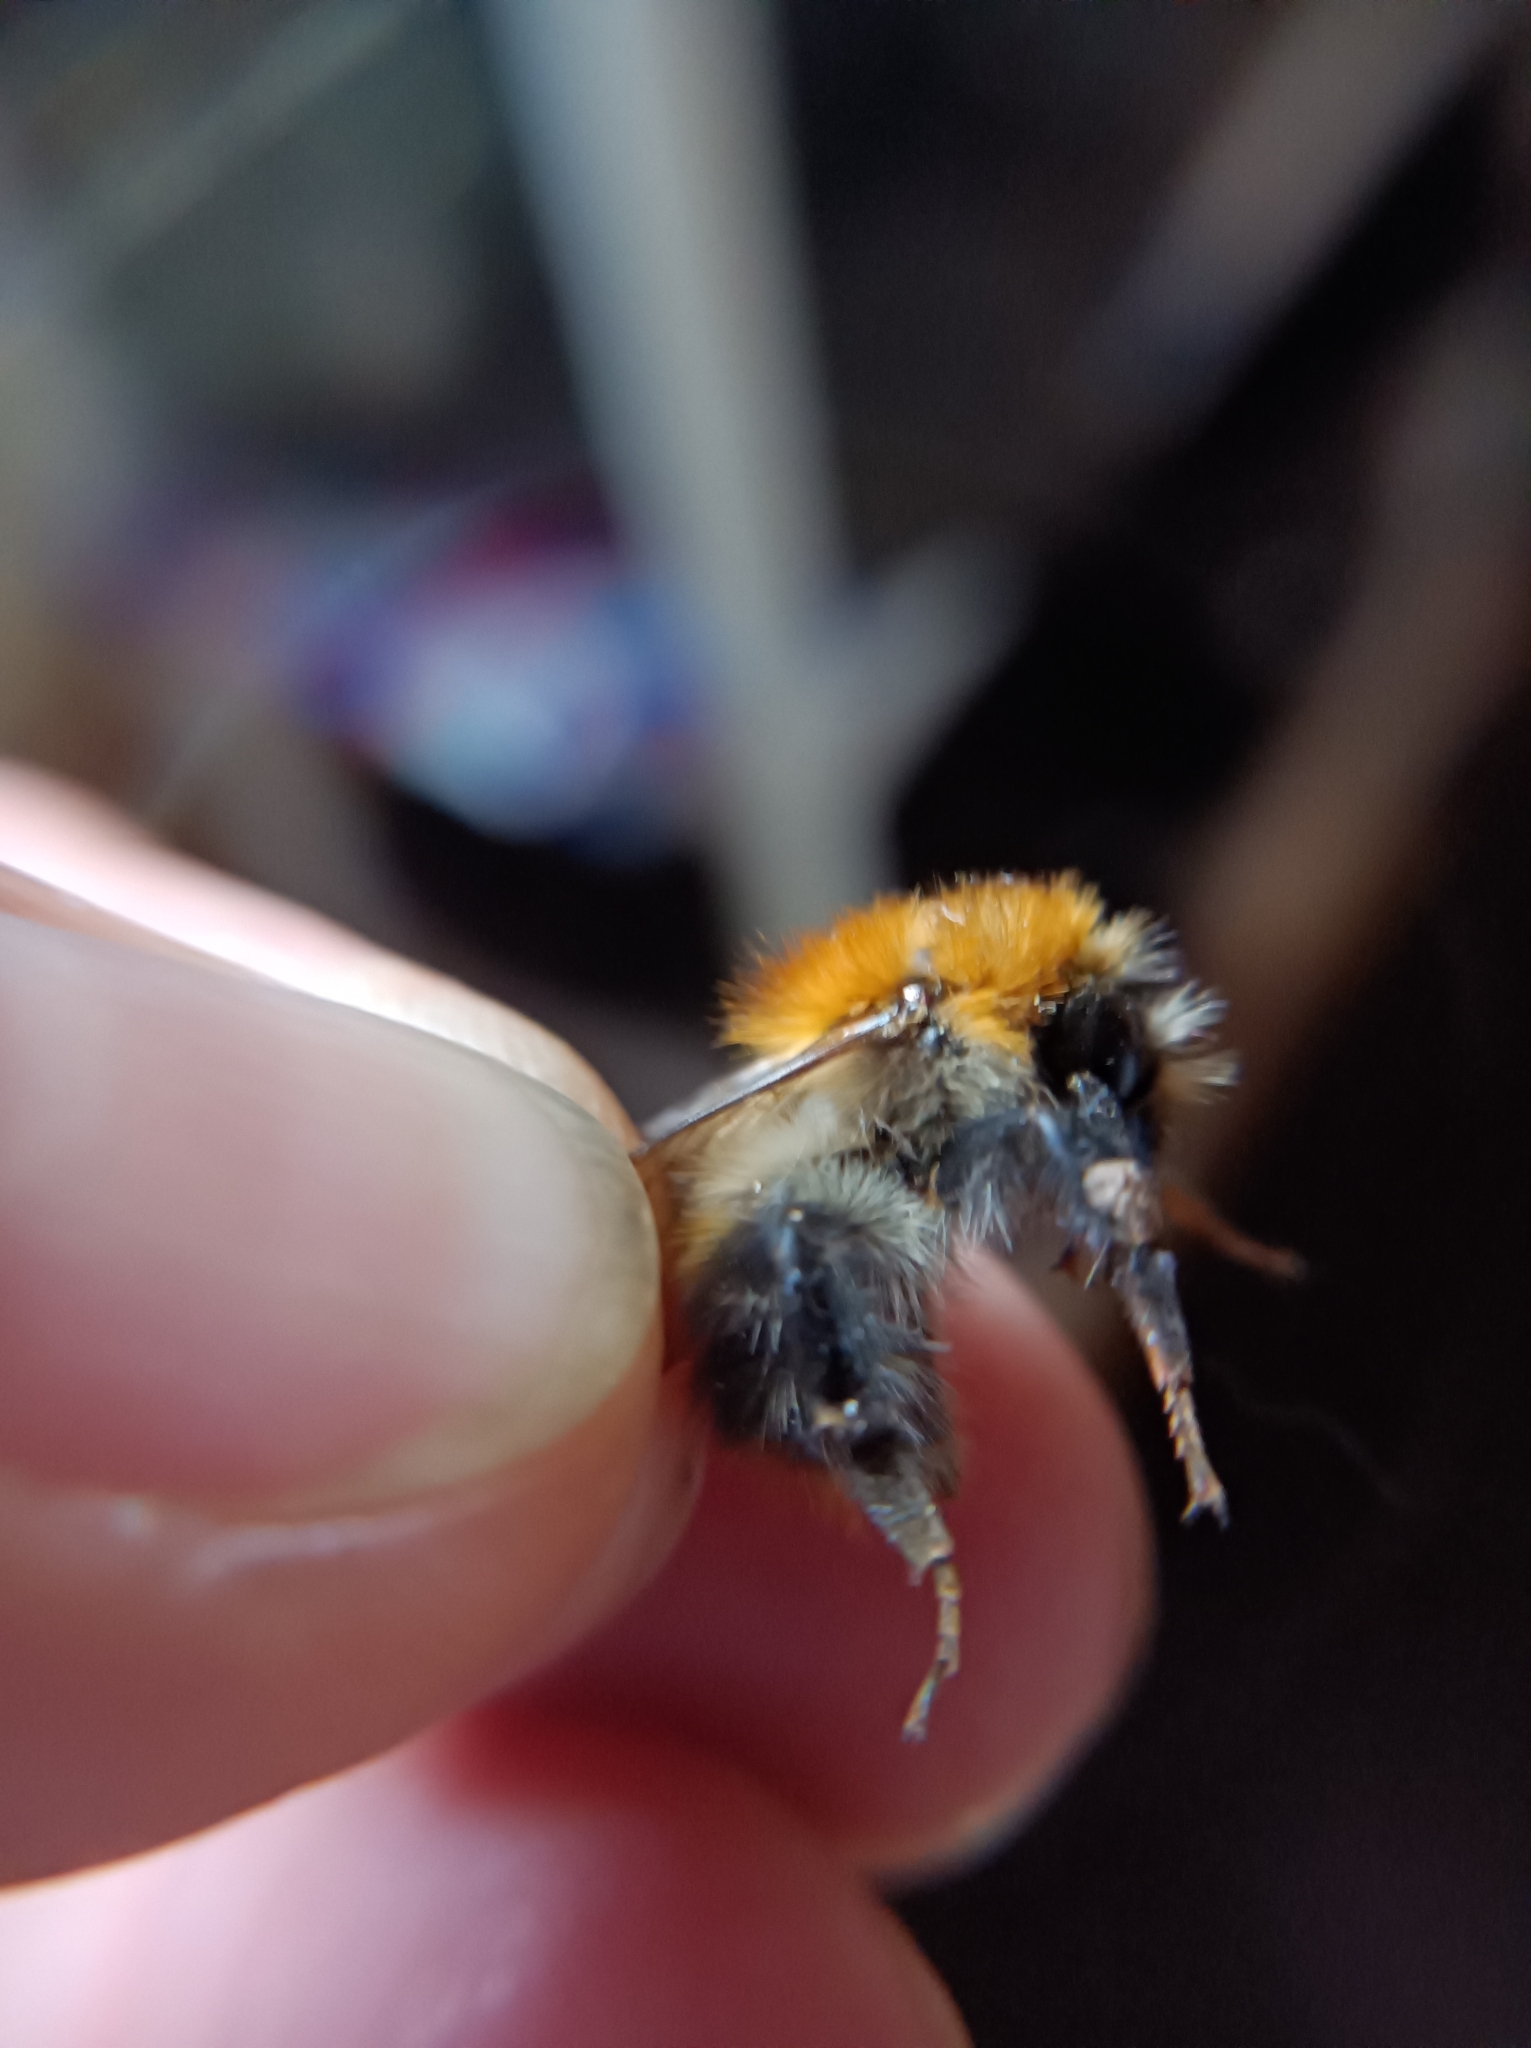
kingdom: Animalia
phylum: Arthropoda
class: Insecta
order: Hymenoptera
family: Apidae
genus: Bombus
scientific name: Bombus pascuorum
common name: Common carder bee
